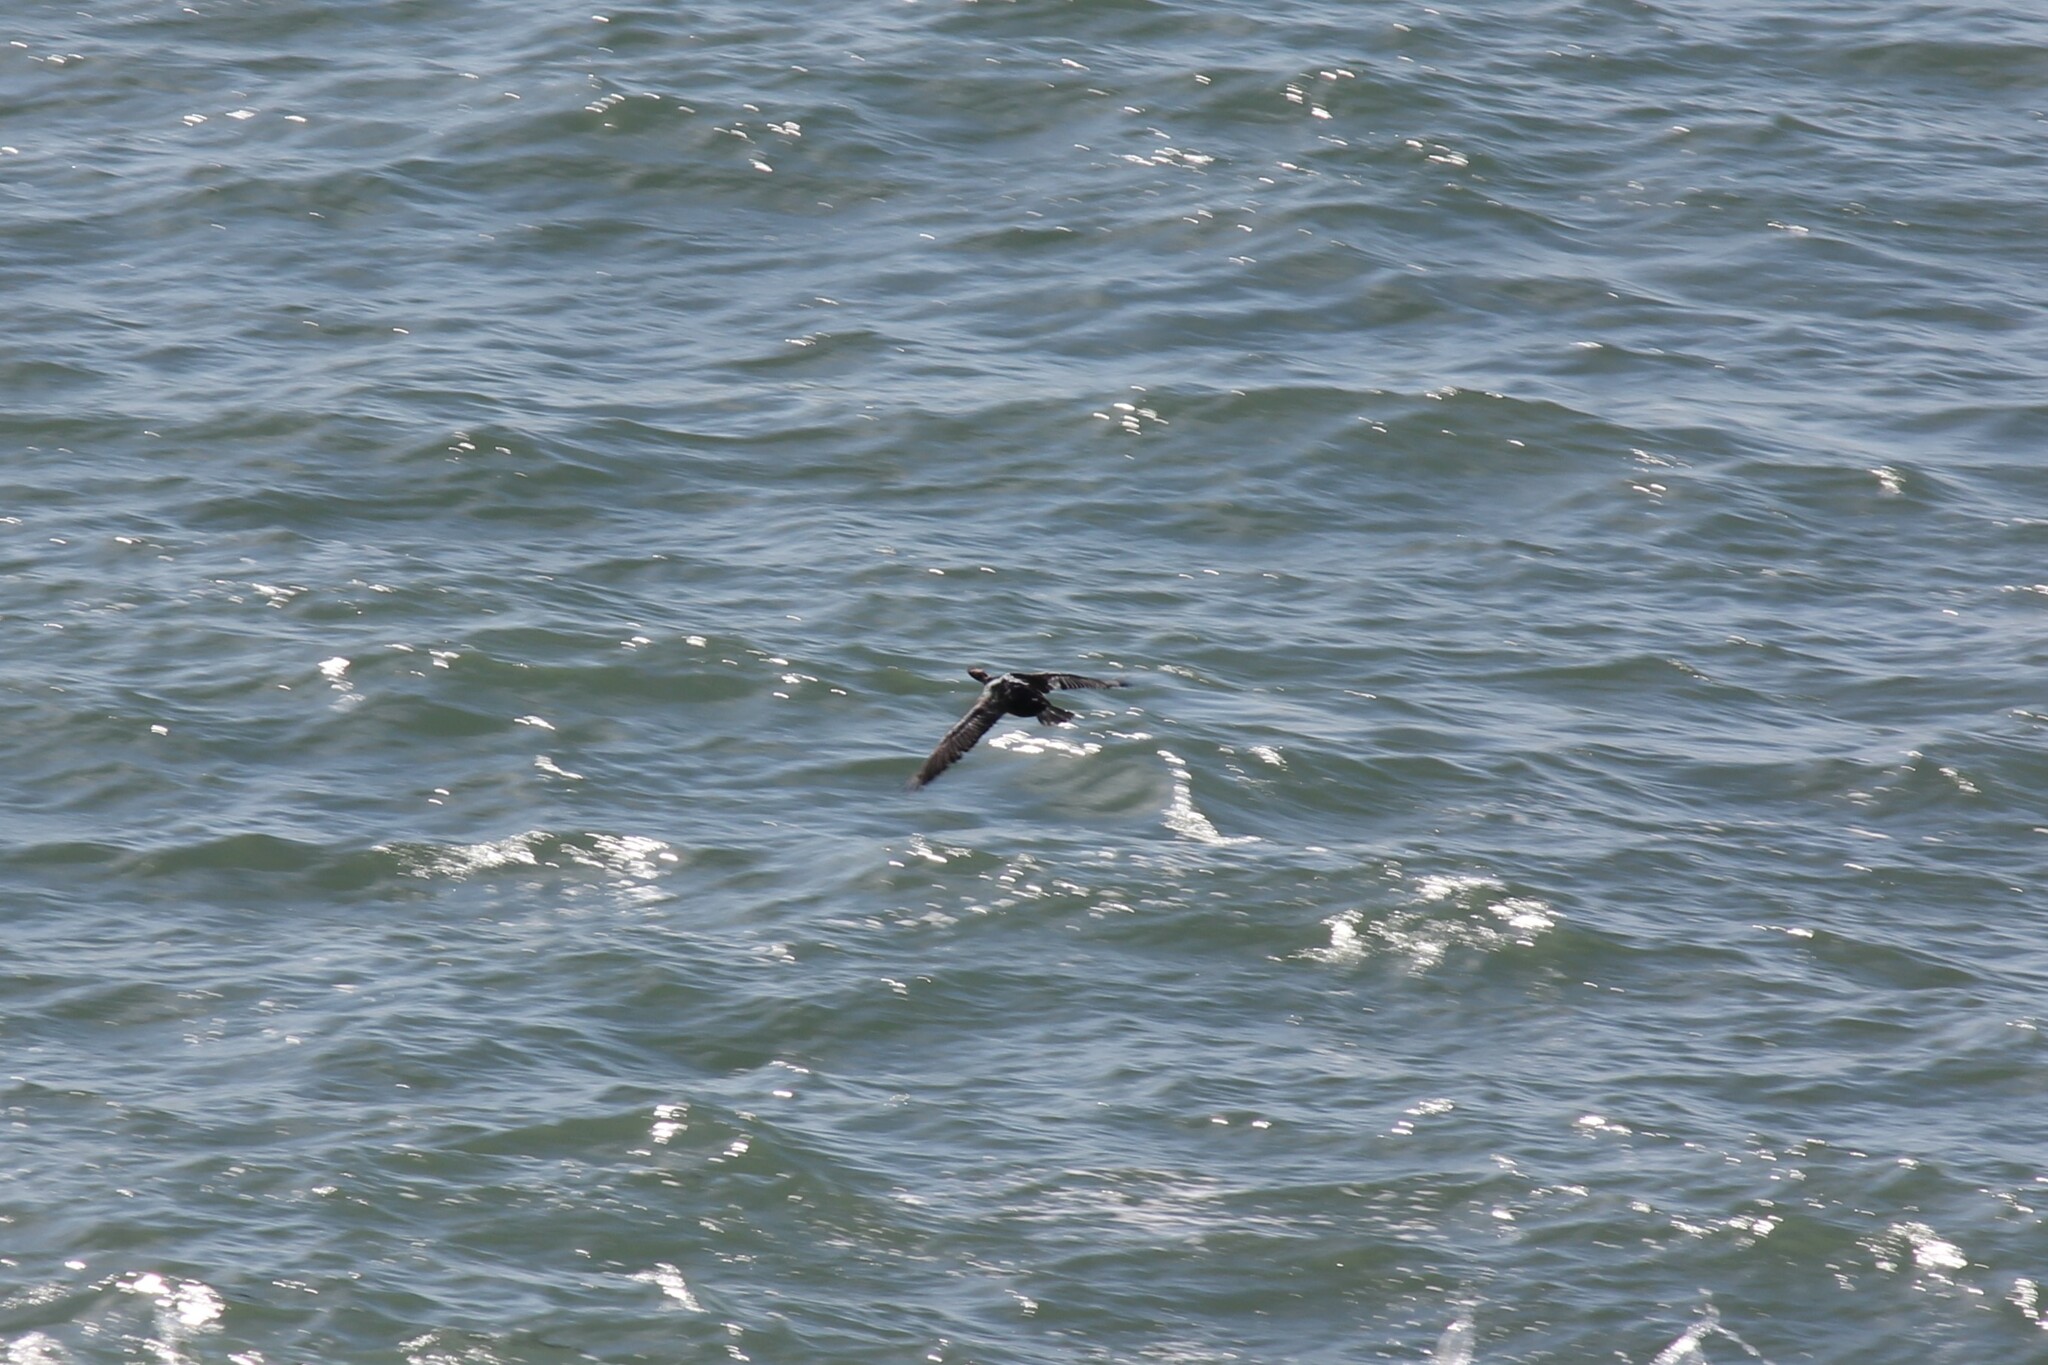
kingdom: Animalia
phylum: Chordata
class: Aves
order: Suliformes
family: Phalacrocoracidae
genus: Phalacrocorax
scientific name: Phalacrocorax pelagicus
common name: Pelagic cormorant
